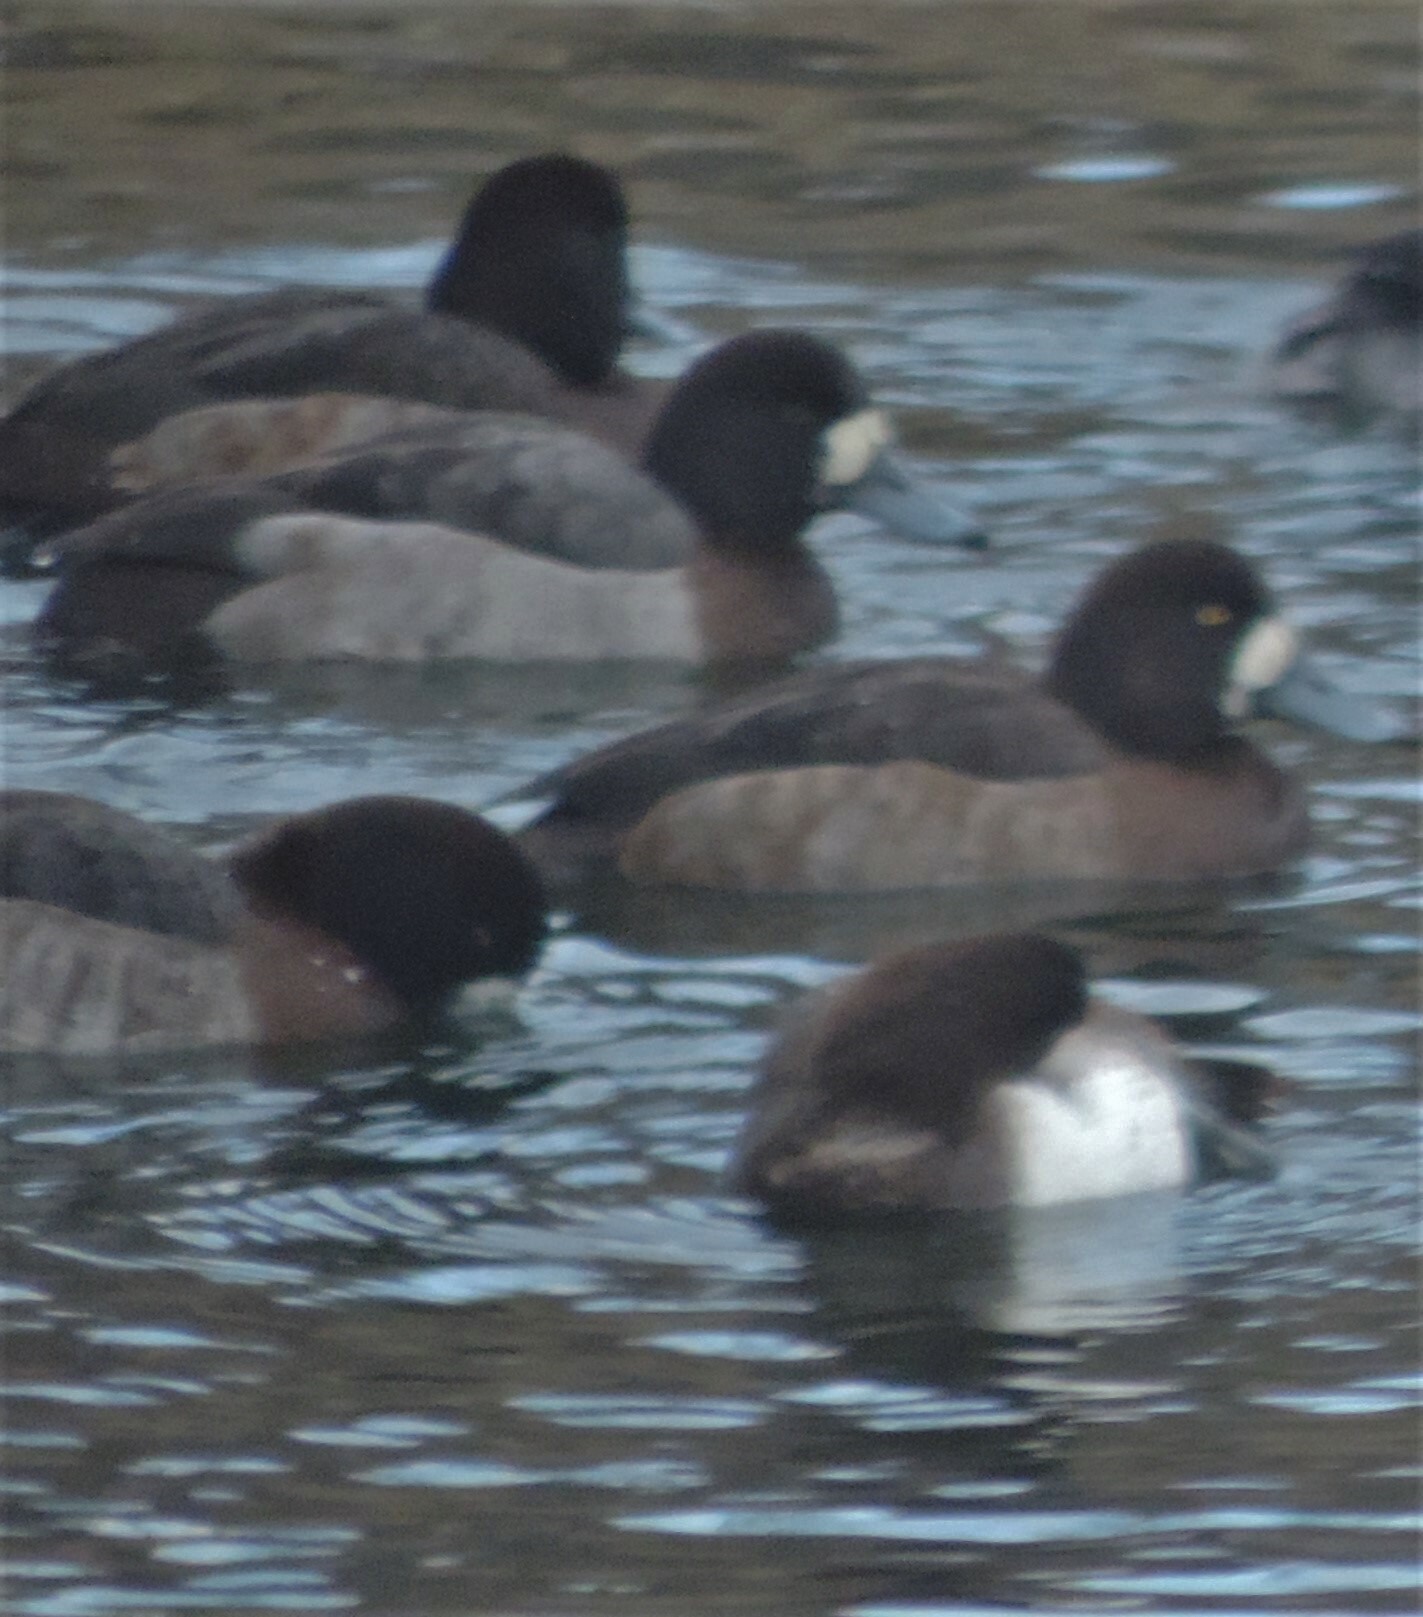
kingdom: Animalia
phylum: Chordata
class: Aves
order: Anseriformes
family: Anatidae
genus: Aythya
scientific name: Aythya marila
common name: Greater scaup
